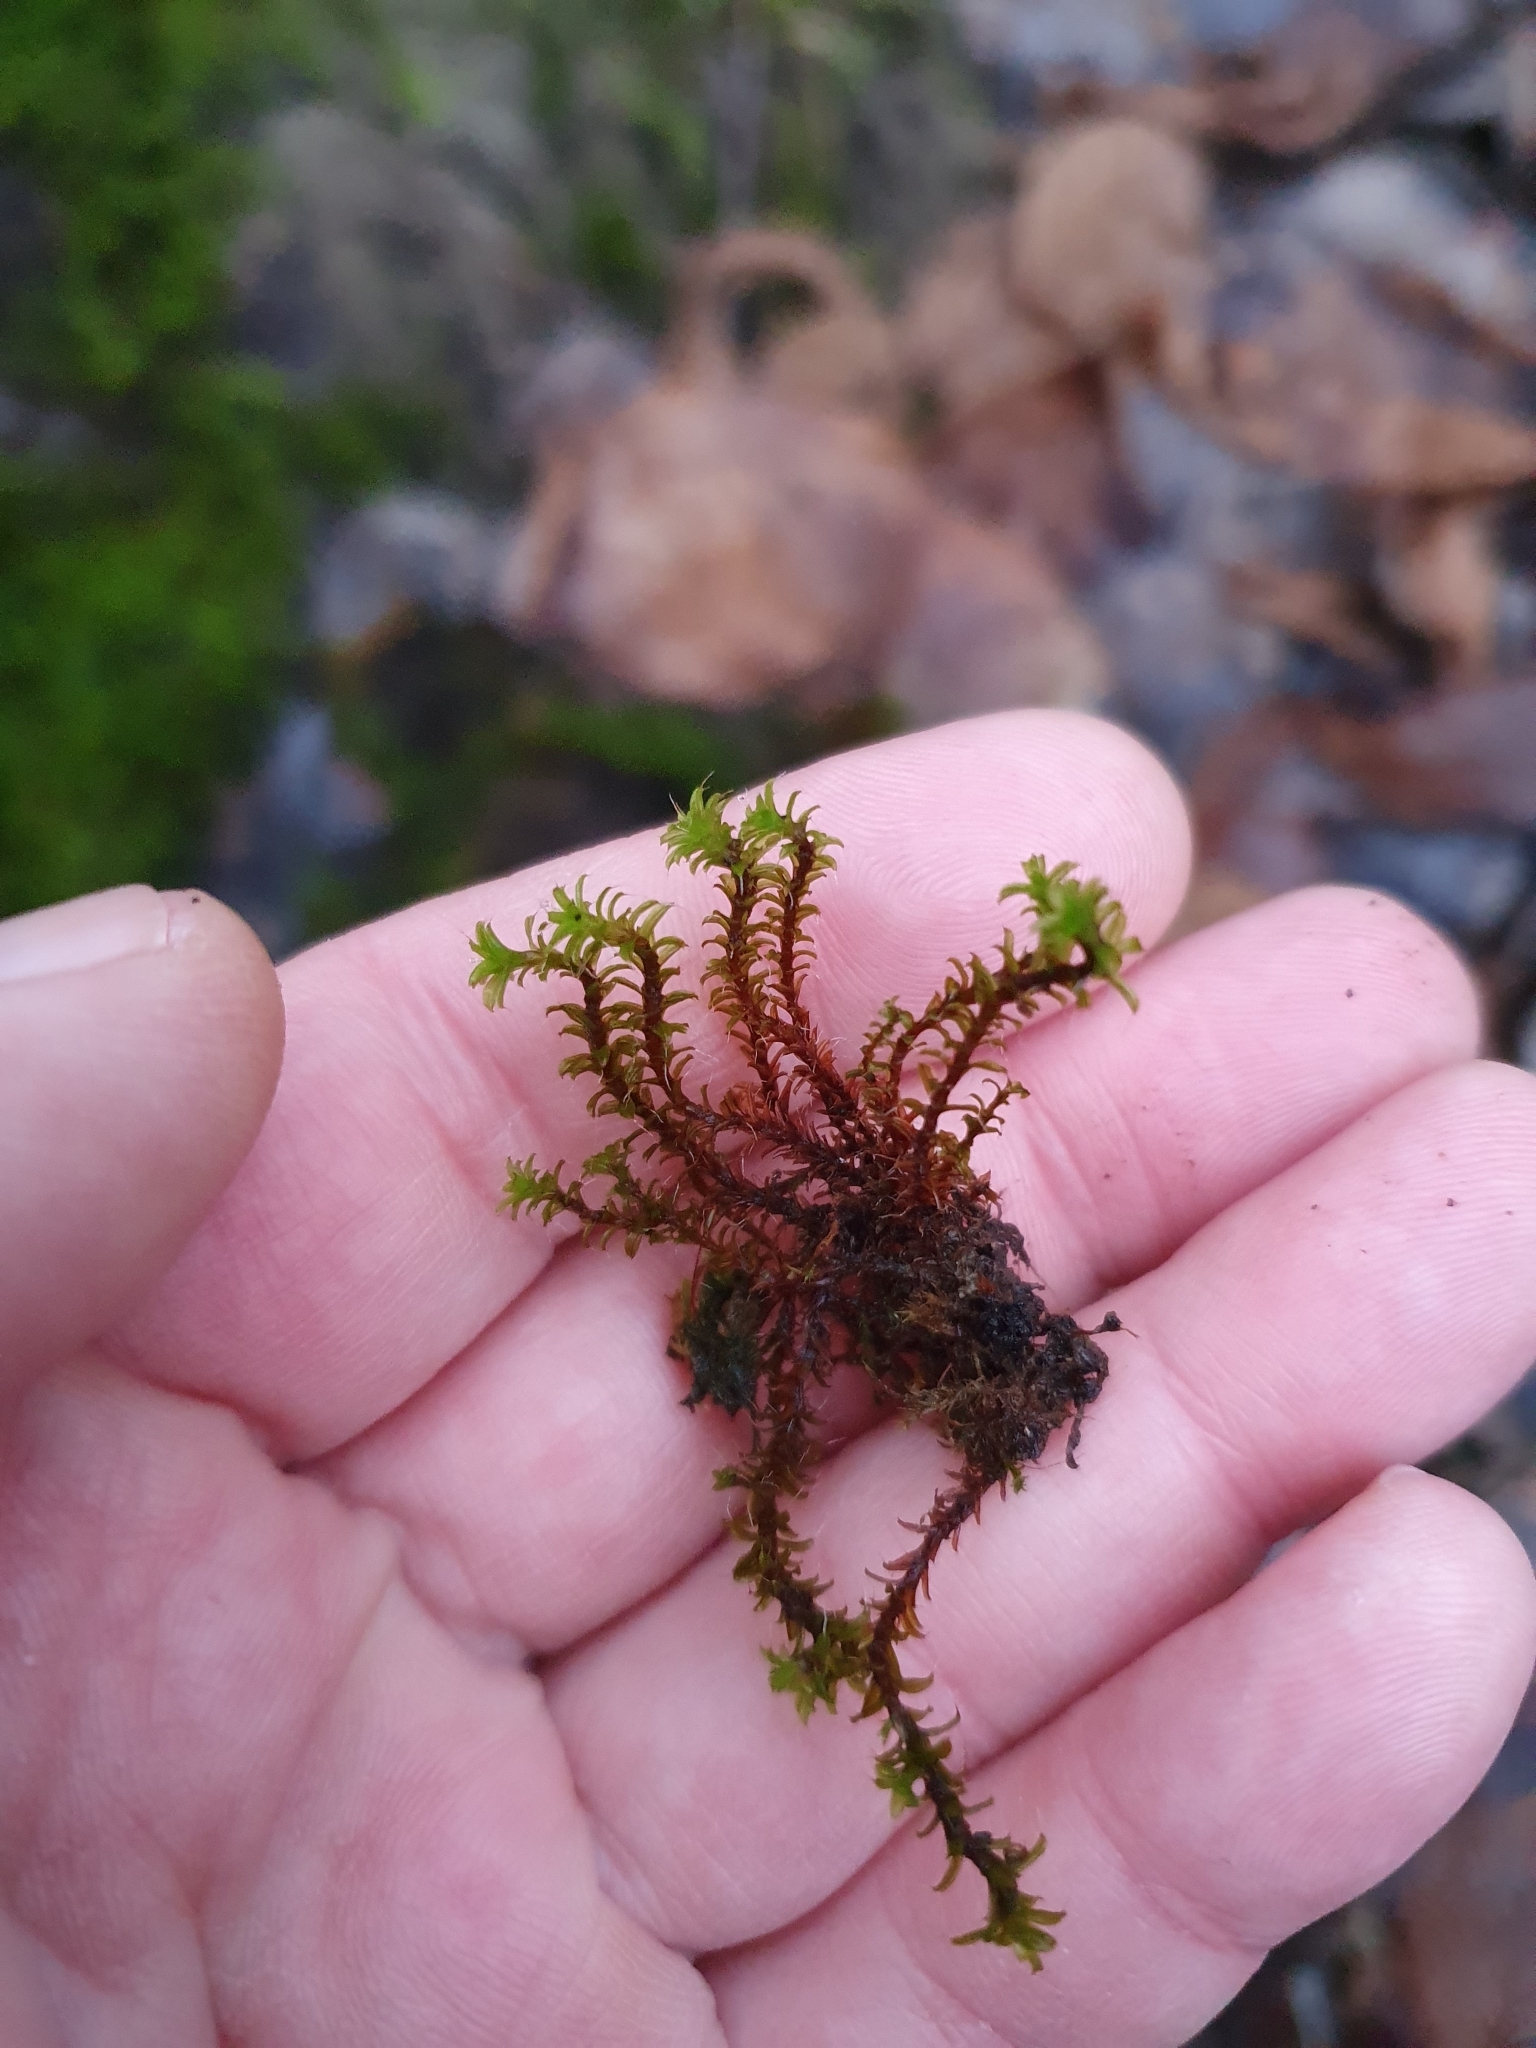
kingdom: Plantae
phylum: Bryophyta
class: Bryopsida
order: Pottiales
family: Pottiaceae
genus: Syntrichia
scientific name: Syntrichia ruralis
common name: Sidewalk screw moss
